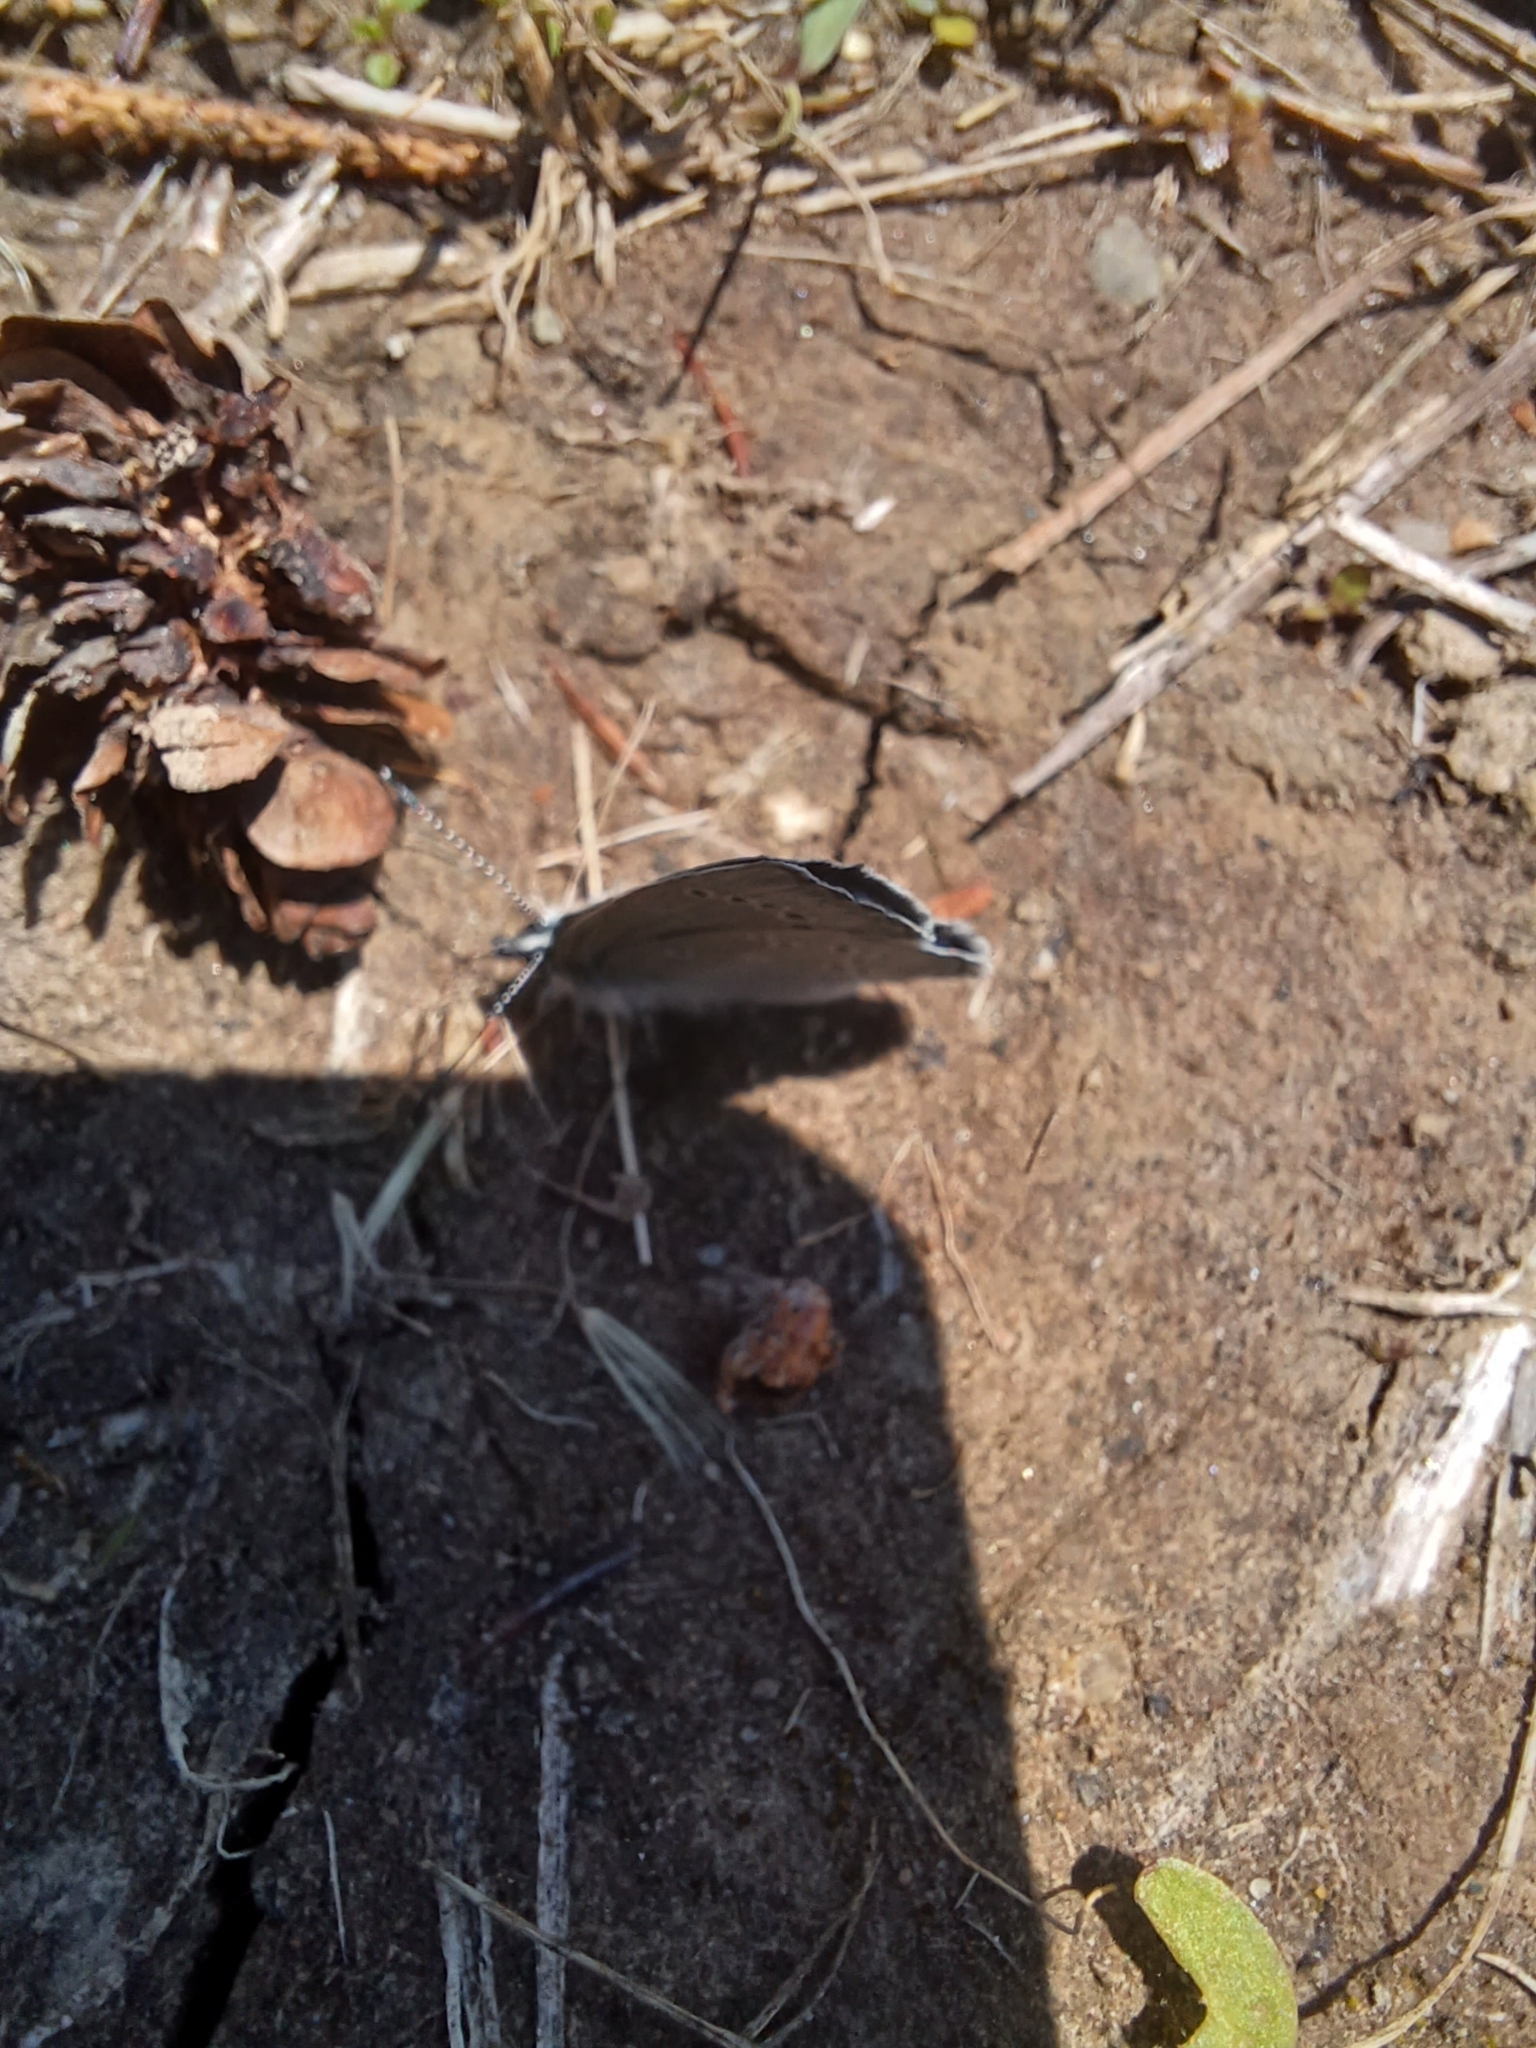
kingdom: Animalia
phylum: Arthropoda
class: Insecta
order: Lepidoptera
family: Lycaenidae
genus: Glaucopsyche
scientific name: Glaucopsyche lygdamus
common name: Silvery blue
